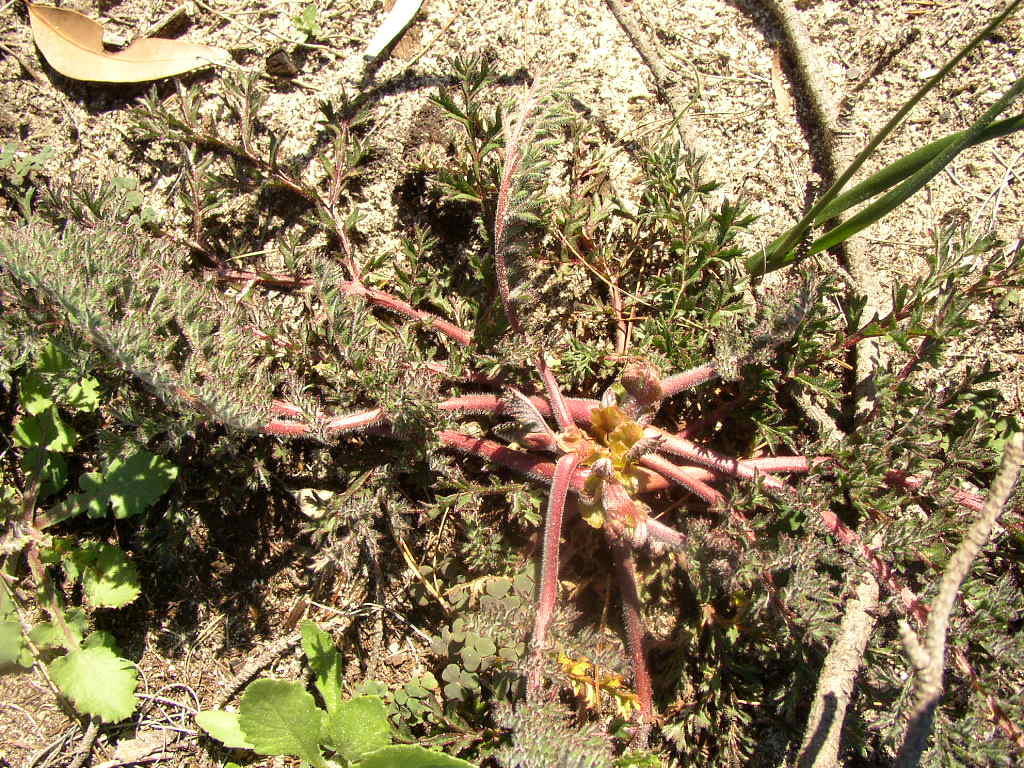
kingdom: Plantae
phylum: Tracheophyta
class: Magnoliopsida
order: Geraniales
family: Geraniaceae
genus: Pelargonium
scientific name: Pelargonium triste
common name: Night-scent pelargonium
